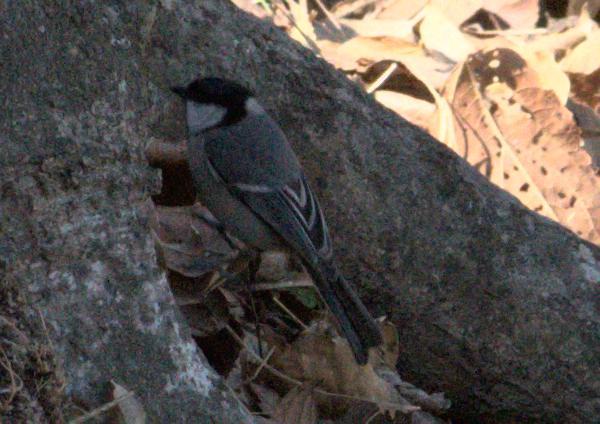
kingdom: Animalia
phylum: Chordata
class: Aves
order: Passeriformes
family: Paridae
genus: Parus
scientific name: Parus cinereus
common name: Cinereous tit
